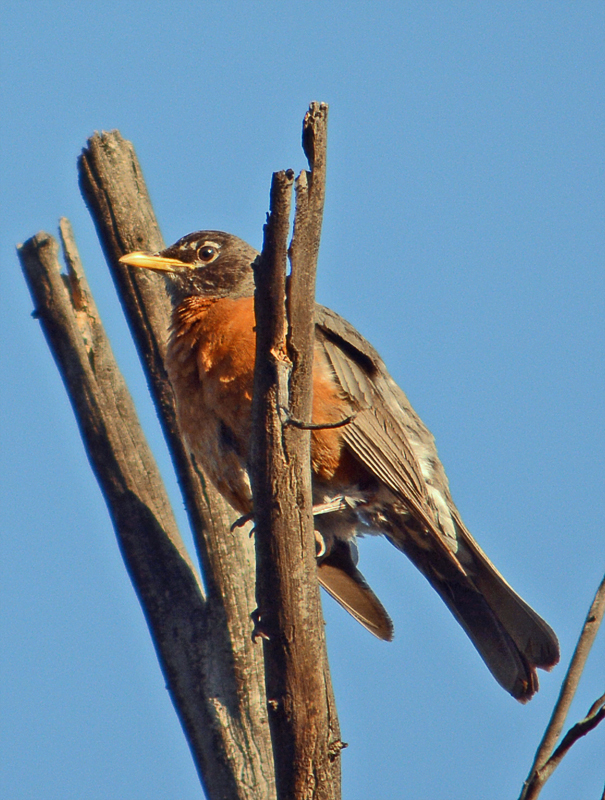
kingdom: Animalia
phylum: Chordata
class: Aves
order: Passeriformes
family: Turdidae
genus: Turdus
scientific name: Turdus migratorius
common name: American robin
